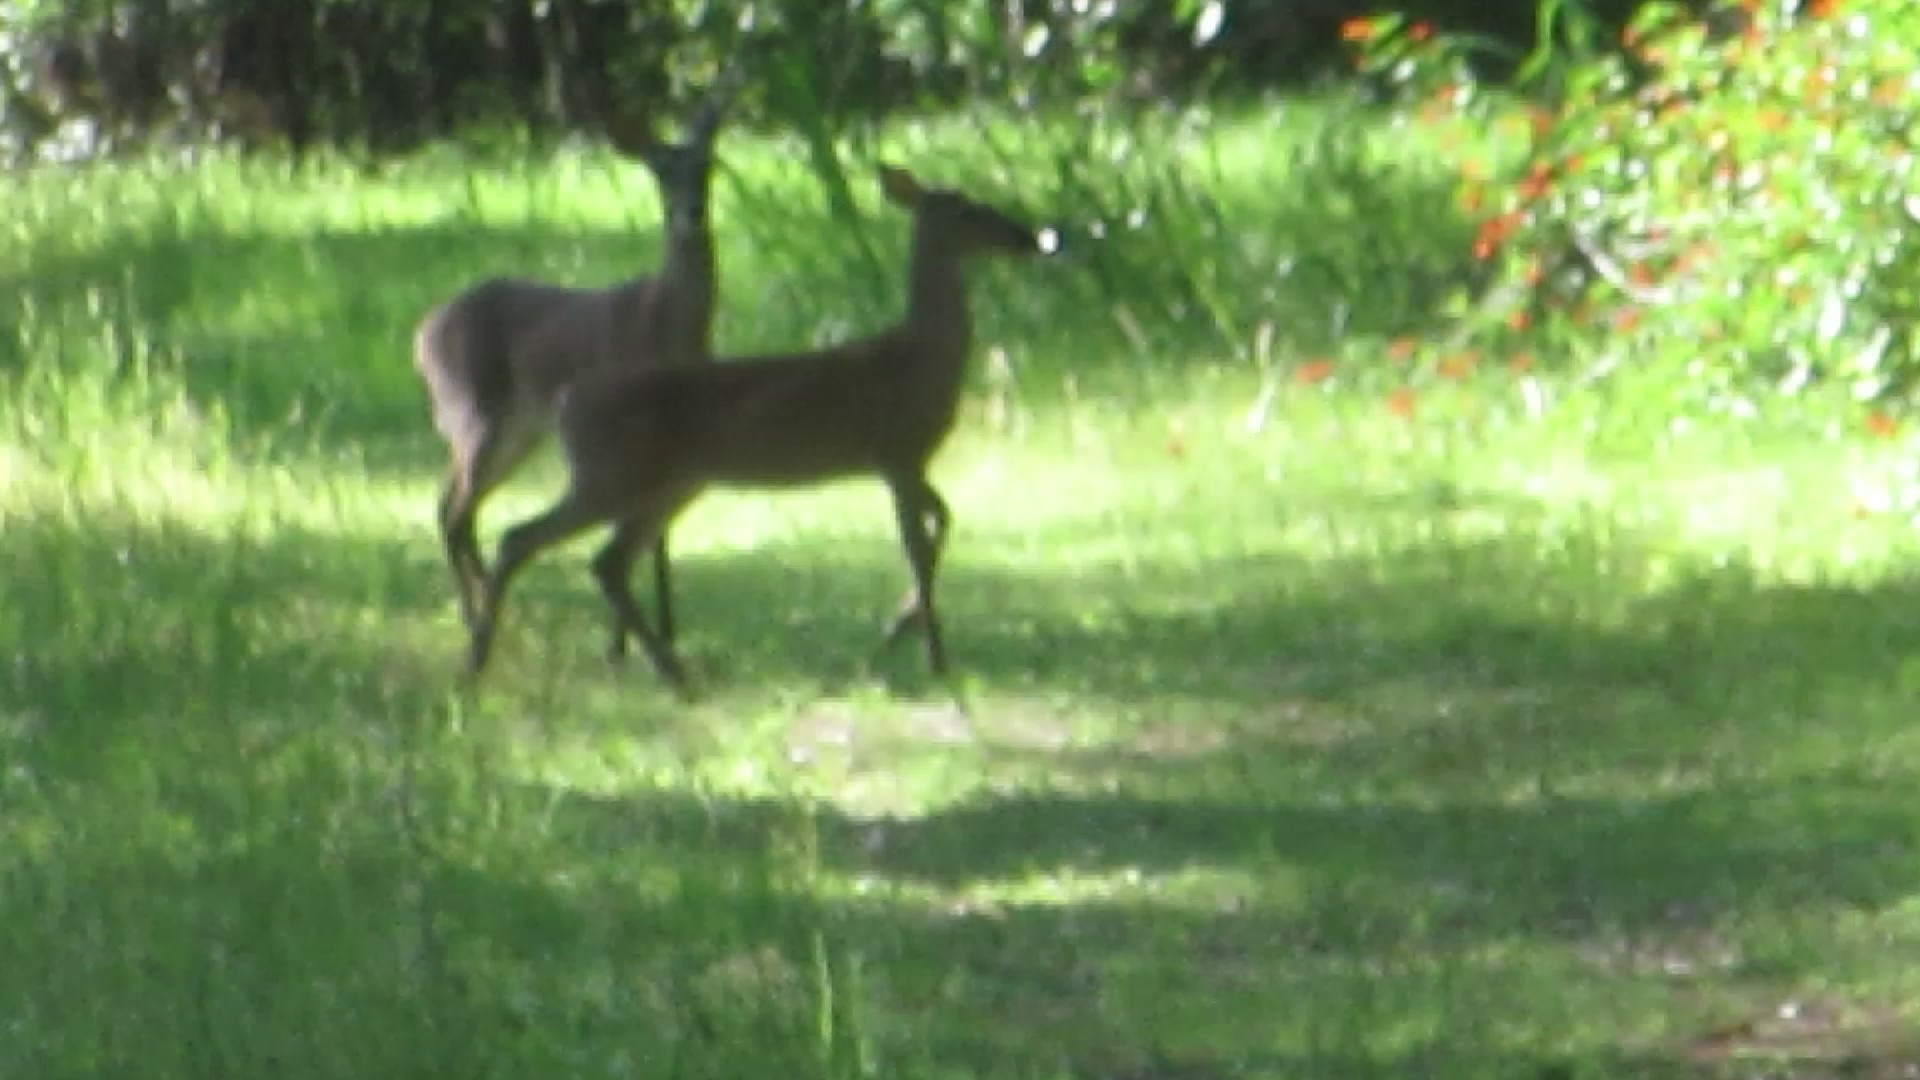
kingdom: Animalia
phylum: Chordata
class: Mammalia
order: Artiodactyla
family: Cervidae
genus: Odocoileus
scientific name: Odocoileus virginianus
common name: White-tailed deer
